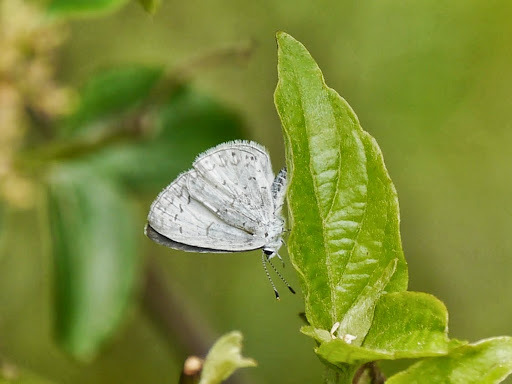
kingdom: Animalia
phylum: Arthropoda
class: Insecta
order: Lepidoptera
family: Lycaenidae
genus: Cyaniris
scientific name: Cyaniris neglecta
